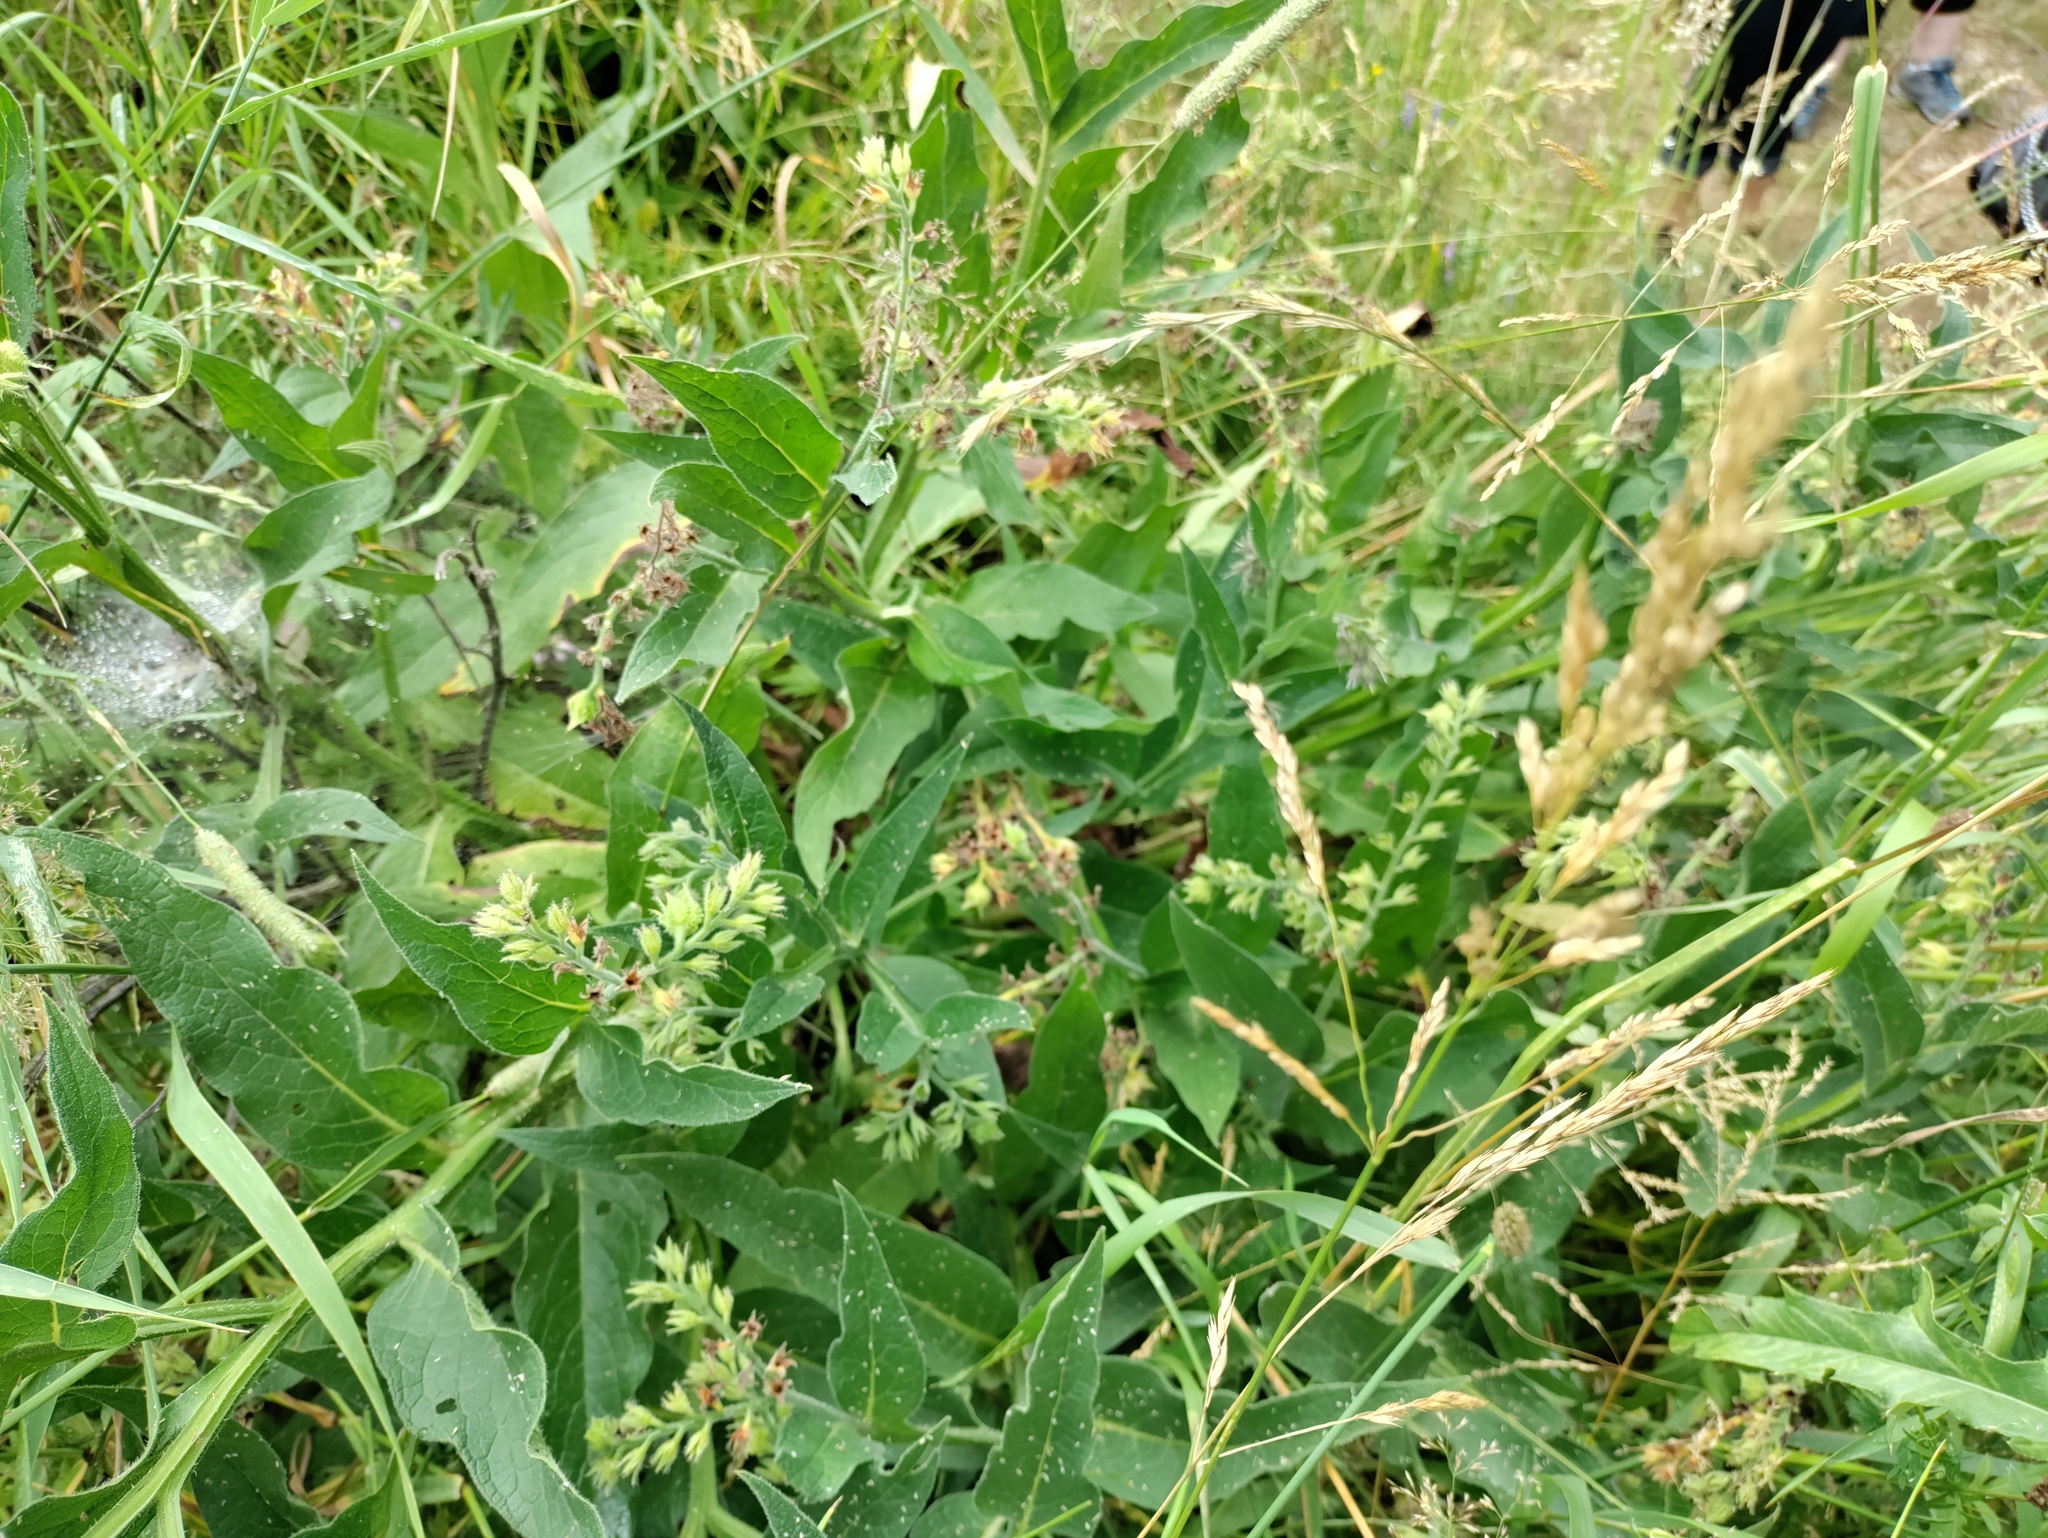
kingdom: Plantae
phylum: Tracheophyta
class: Magnoliopsida
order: Boraginales
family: Boraginaceae
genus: Symphytum
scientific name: Symphytum officinale
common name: Common comfrey
